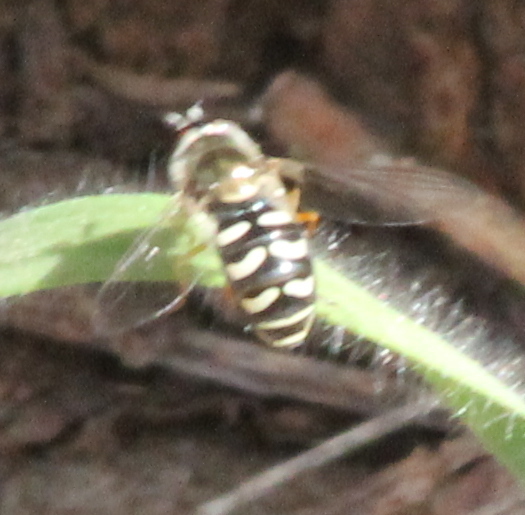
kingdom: Animalia
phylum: Arthropoda
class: Insecta
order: Diptera
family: Syrphidae
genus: Eupeodes
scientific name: Eupeodes volucris
